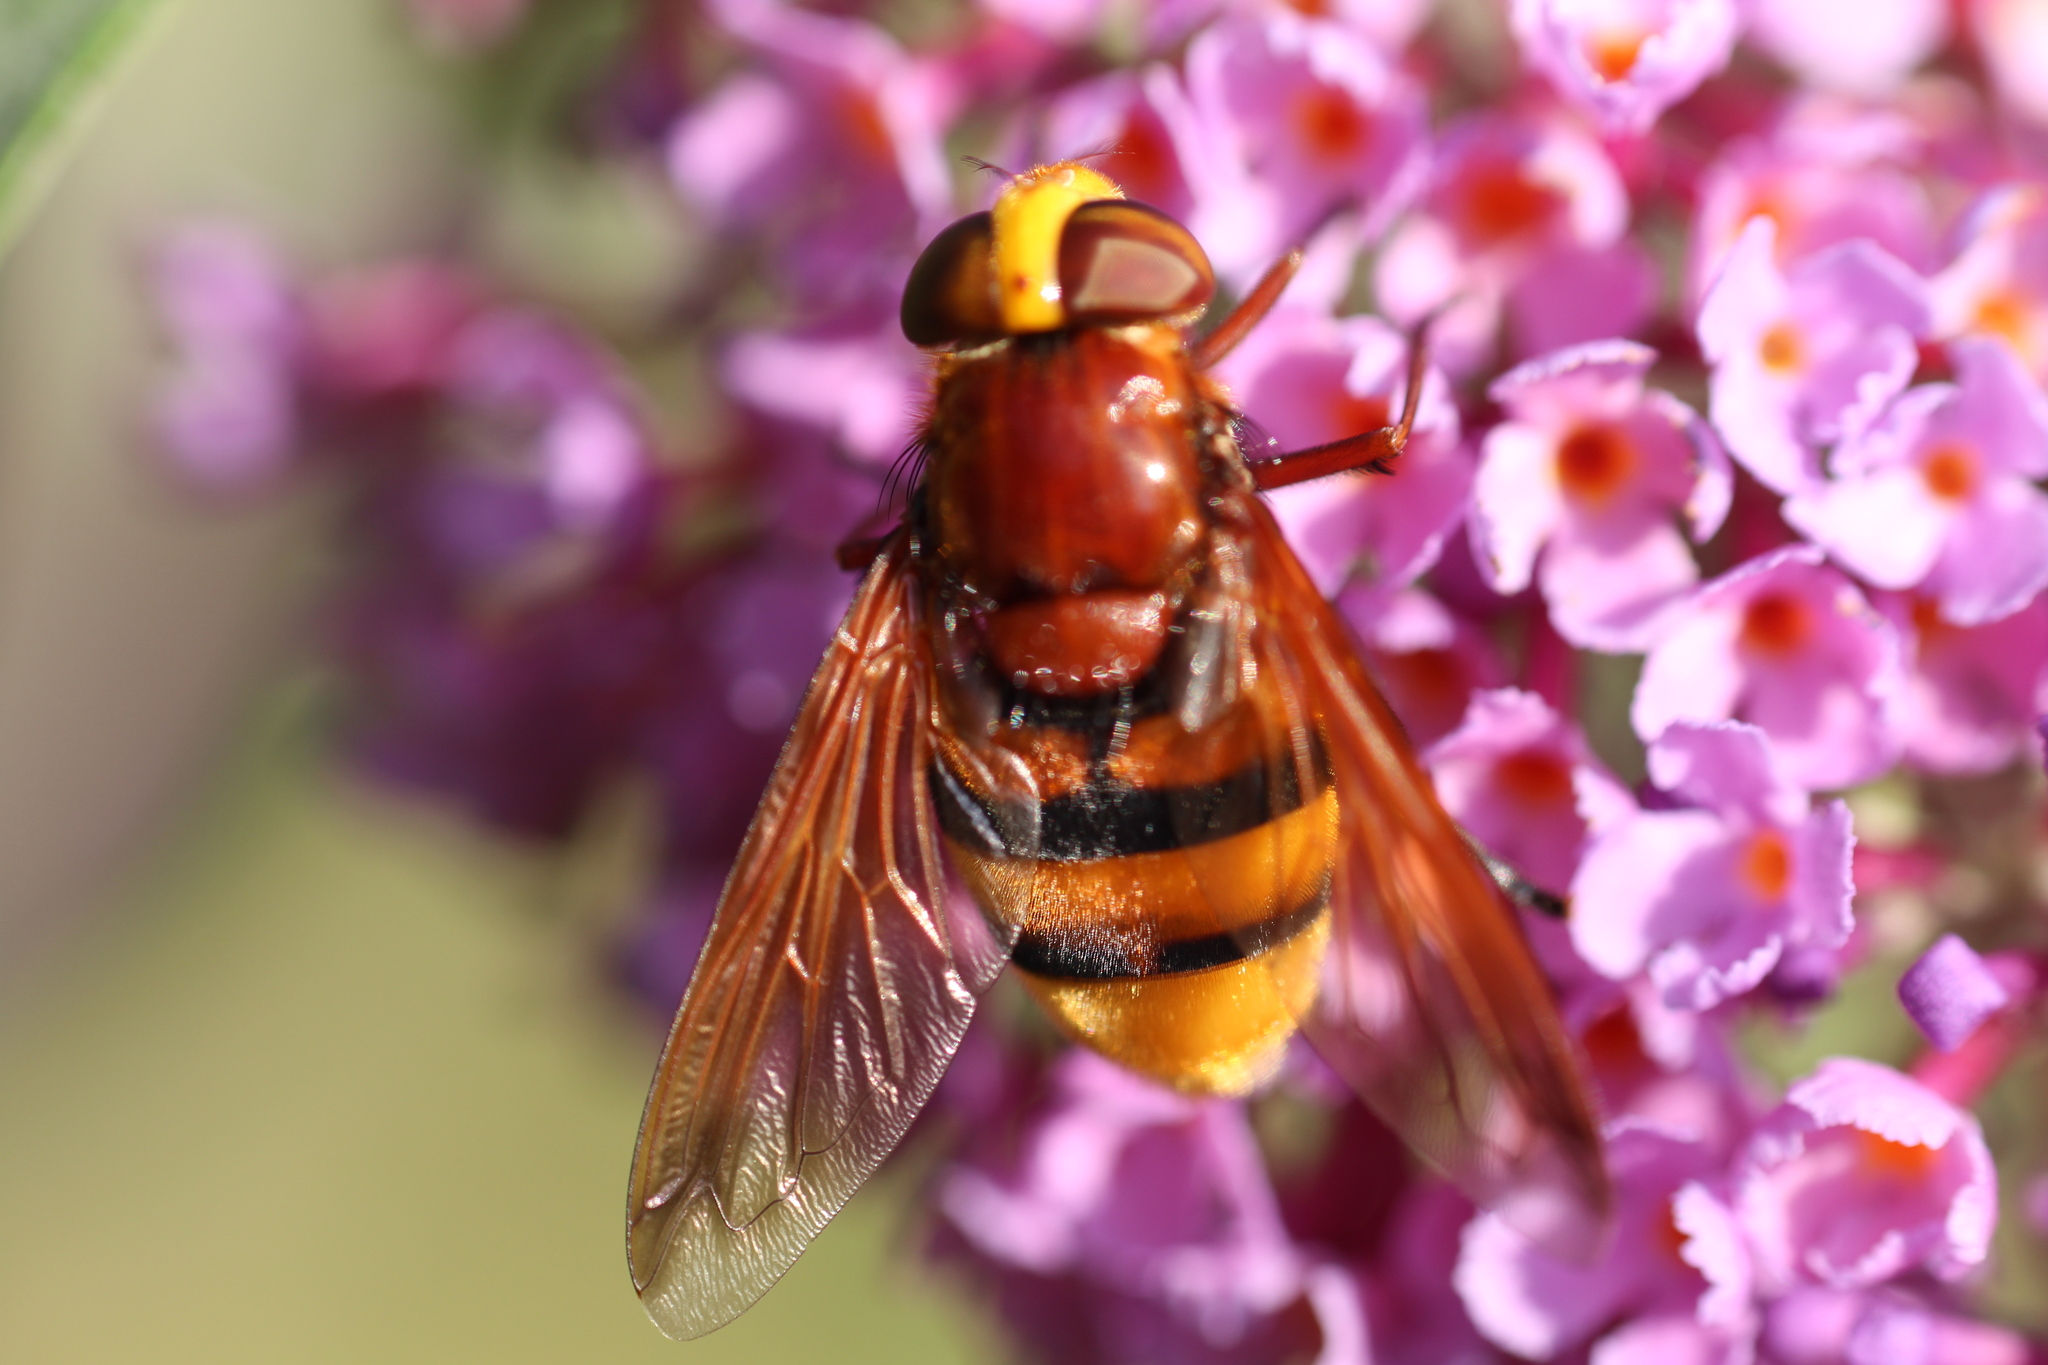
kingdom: Animalia
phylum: Arthropoda
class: Insecta
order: Diptera
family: Syrphidae
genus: Volucella
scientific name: Volucella zonaria
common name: Hornet hoverfly
